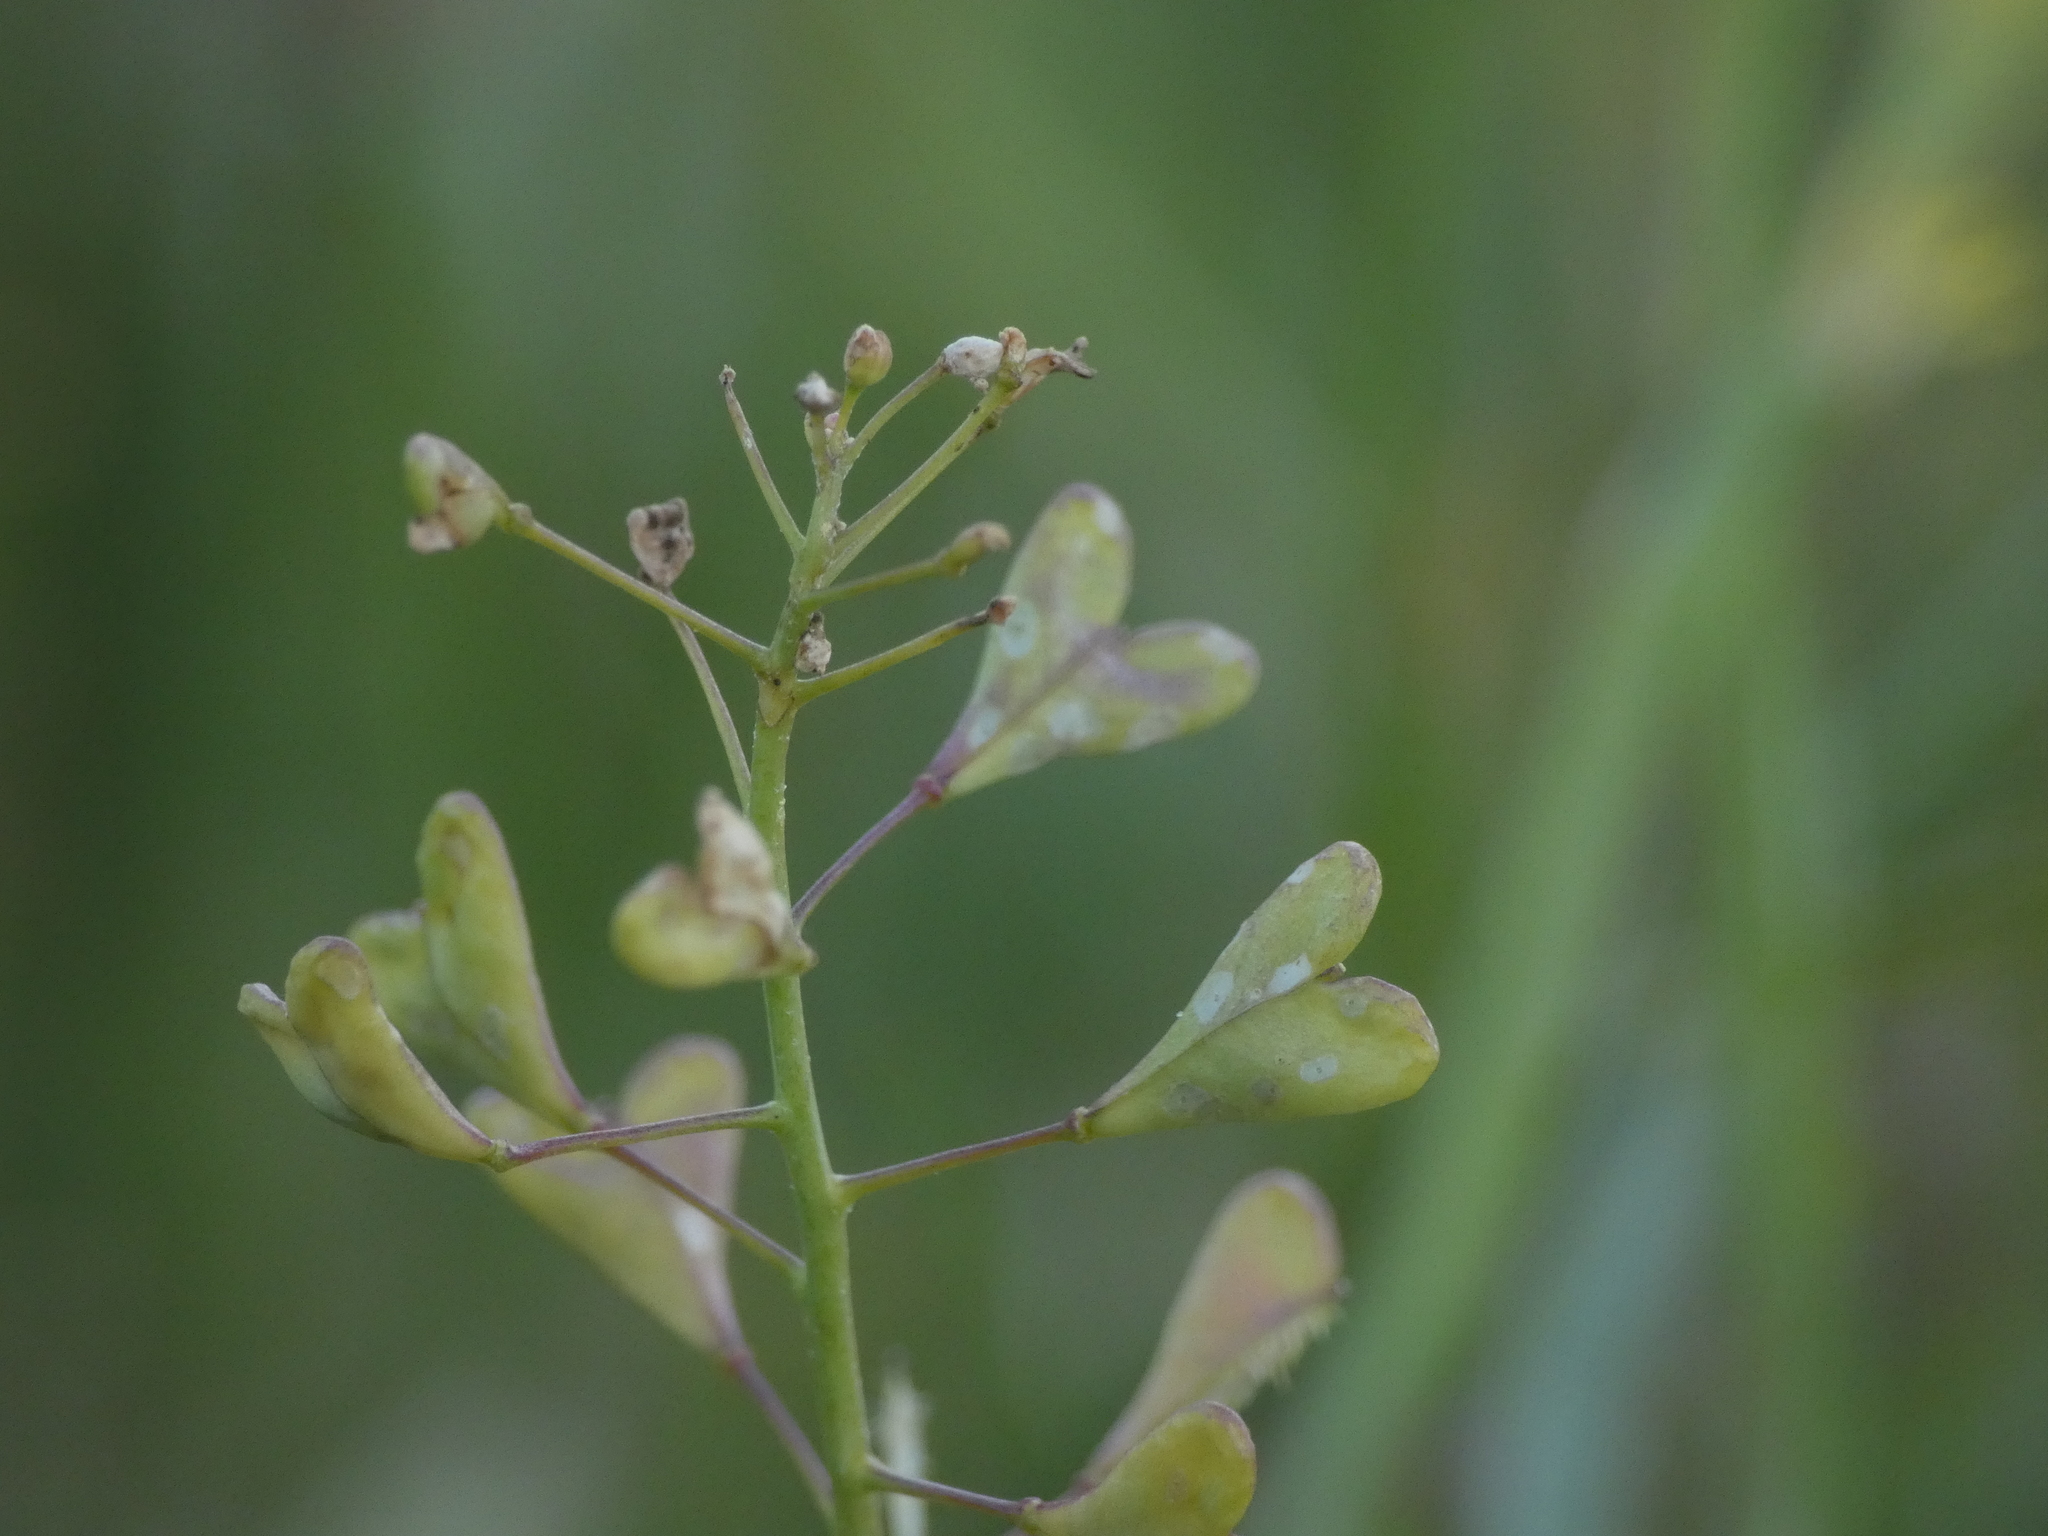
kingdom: Plantae
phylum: Tracheophyta
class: Magnoliopsida
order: Brassicales
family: Brassicaceae
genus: Capsella
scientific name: Capsella bursa-pastoris
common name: Shepherd's purse
